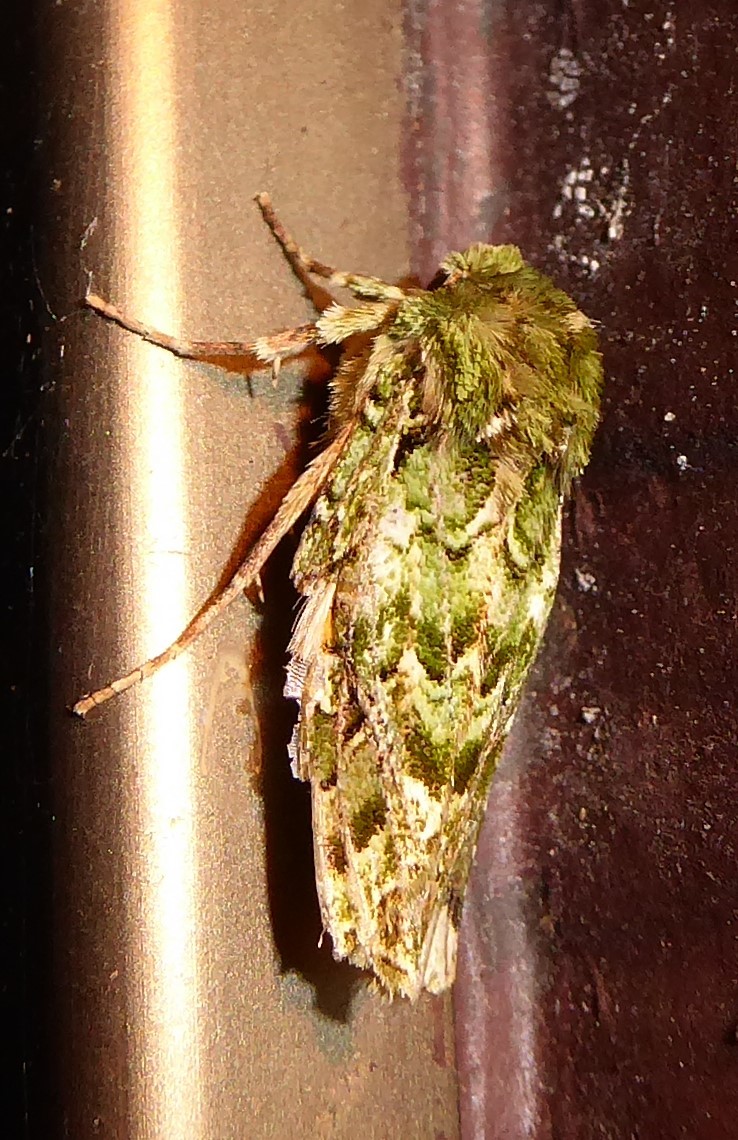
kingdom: Animalia
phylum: Arthropoda
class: Insecta
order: Lepidoptera
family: Noctuidae
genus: Feredayia
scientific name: Feredayia grammosa
